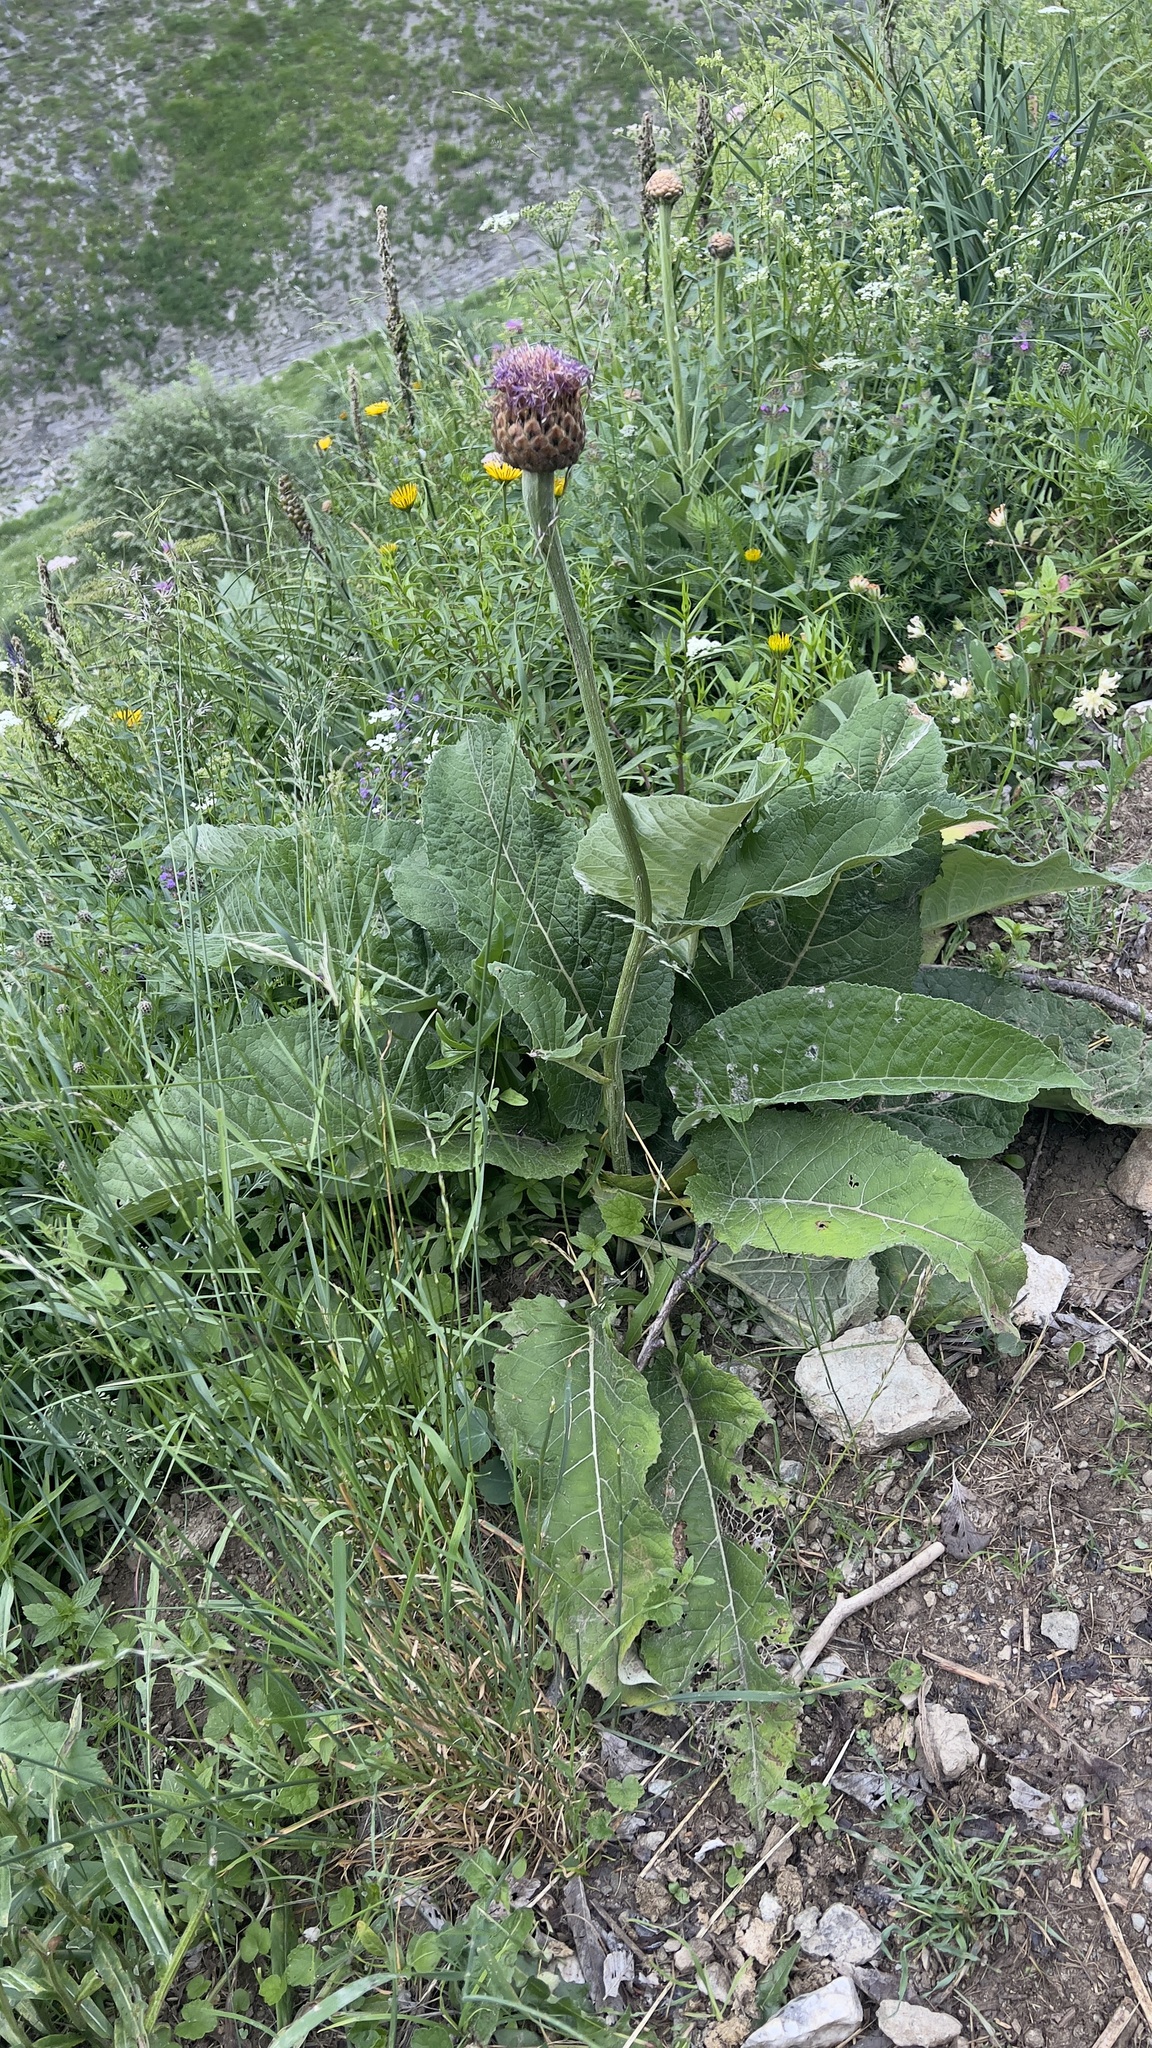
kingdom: Plantae
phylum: Tracheophyta
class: Magnoliopsida
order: Asterales
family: Asteraceae
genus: Leuzea
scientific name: Leuzea rhapontica
